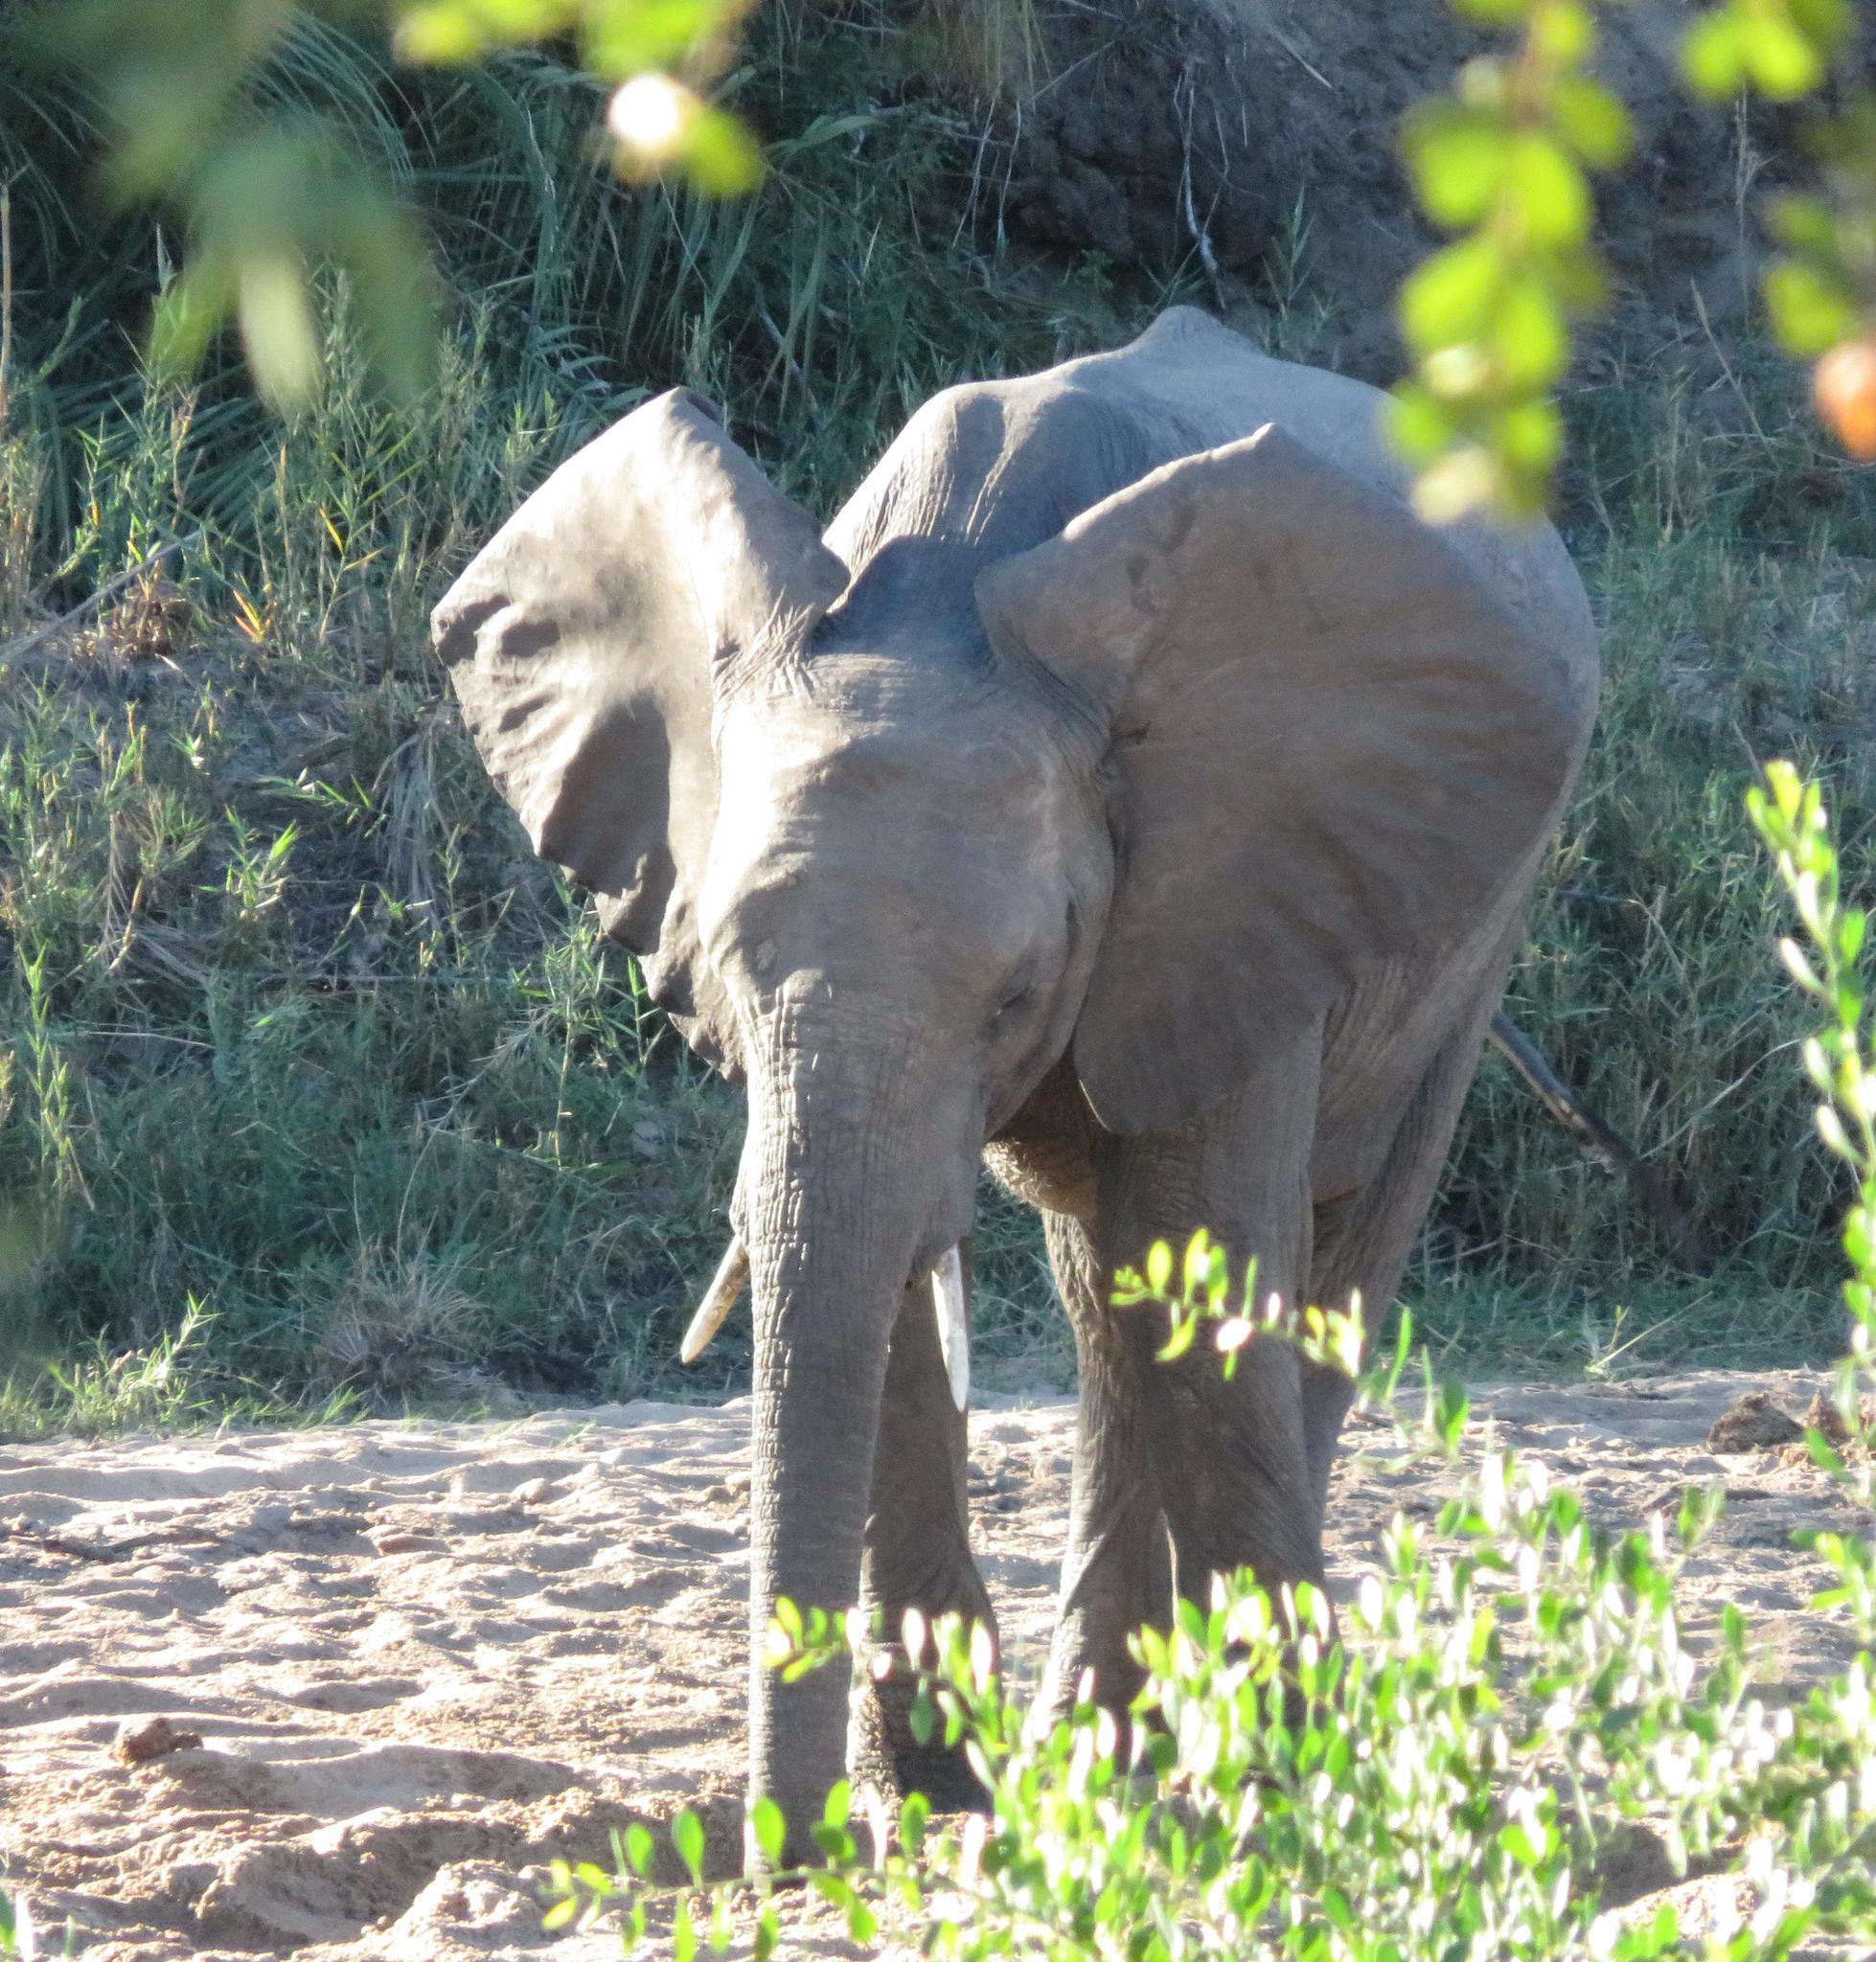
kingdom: Animalia
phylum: Chordata
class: Mammalia
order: Proboscidea
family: Elephantidae
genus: Loxodonta
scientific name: Loxodonta africana
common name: African elephant
